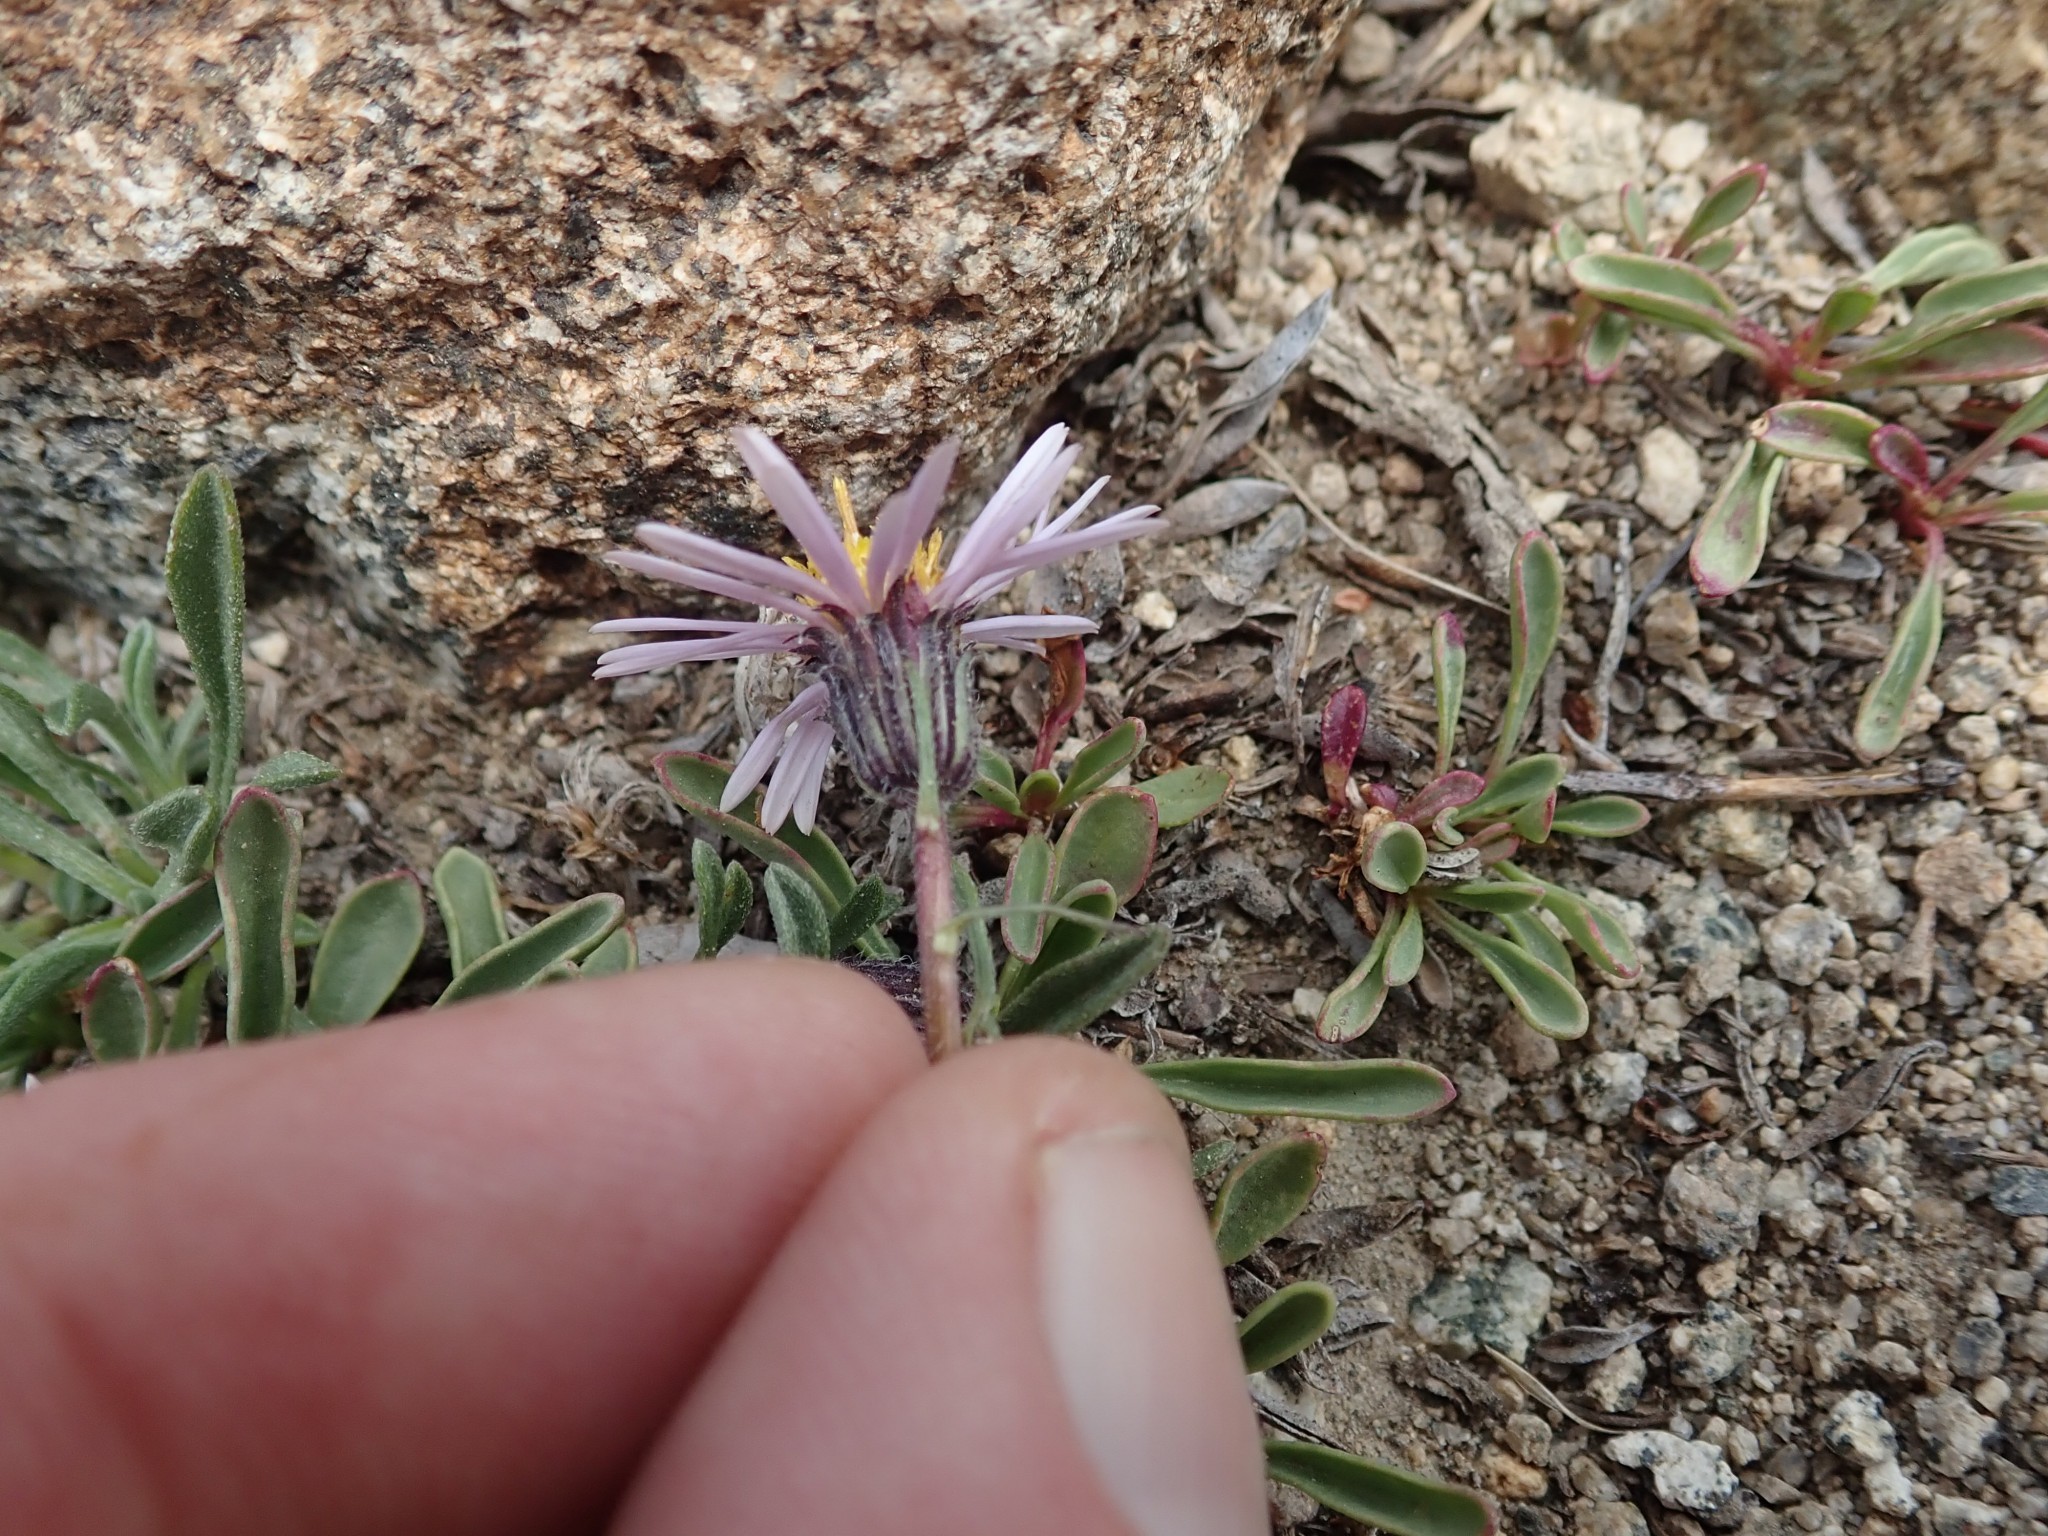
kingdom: Plantae
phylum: Tracheophyta
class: Magnoliopsida
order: Asterales
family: Asteraceae
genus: Erigeron
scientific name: Erigeron pygmaeus
